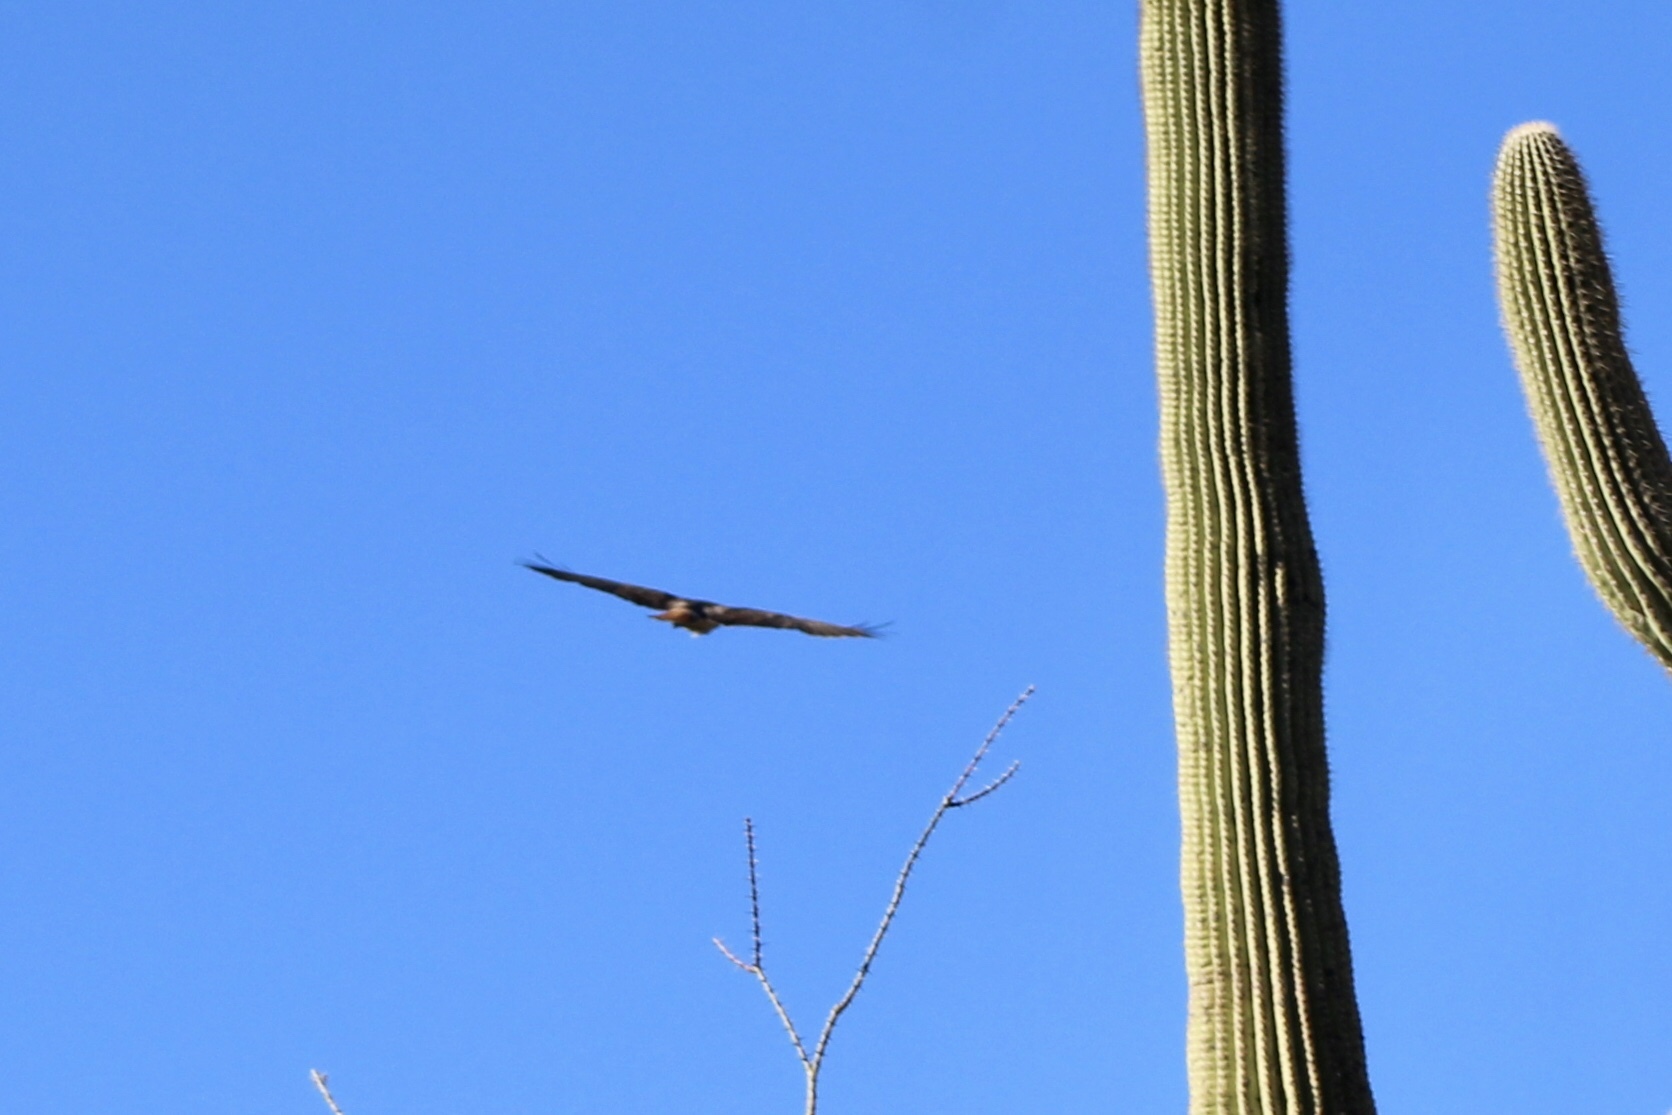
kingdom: Animalia
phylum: Chordata
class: Aves
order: Accipitriformes
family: Accipitridae
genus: Buteo
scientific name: Buteo jamaicensis
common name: Red-tailed hawk
